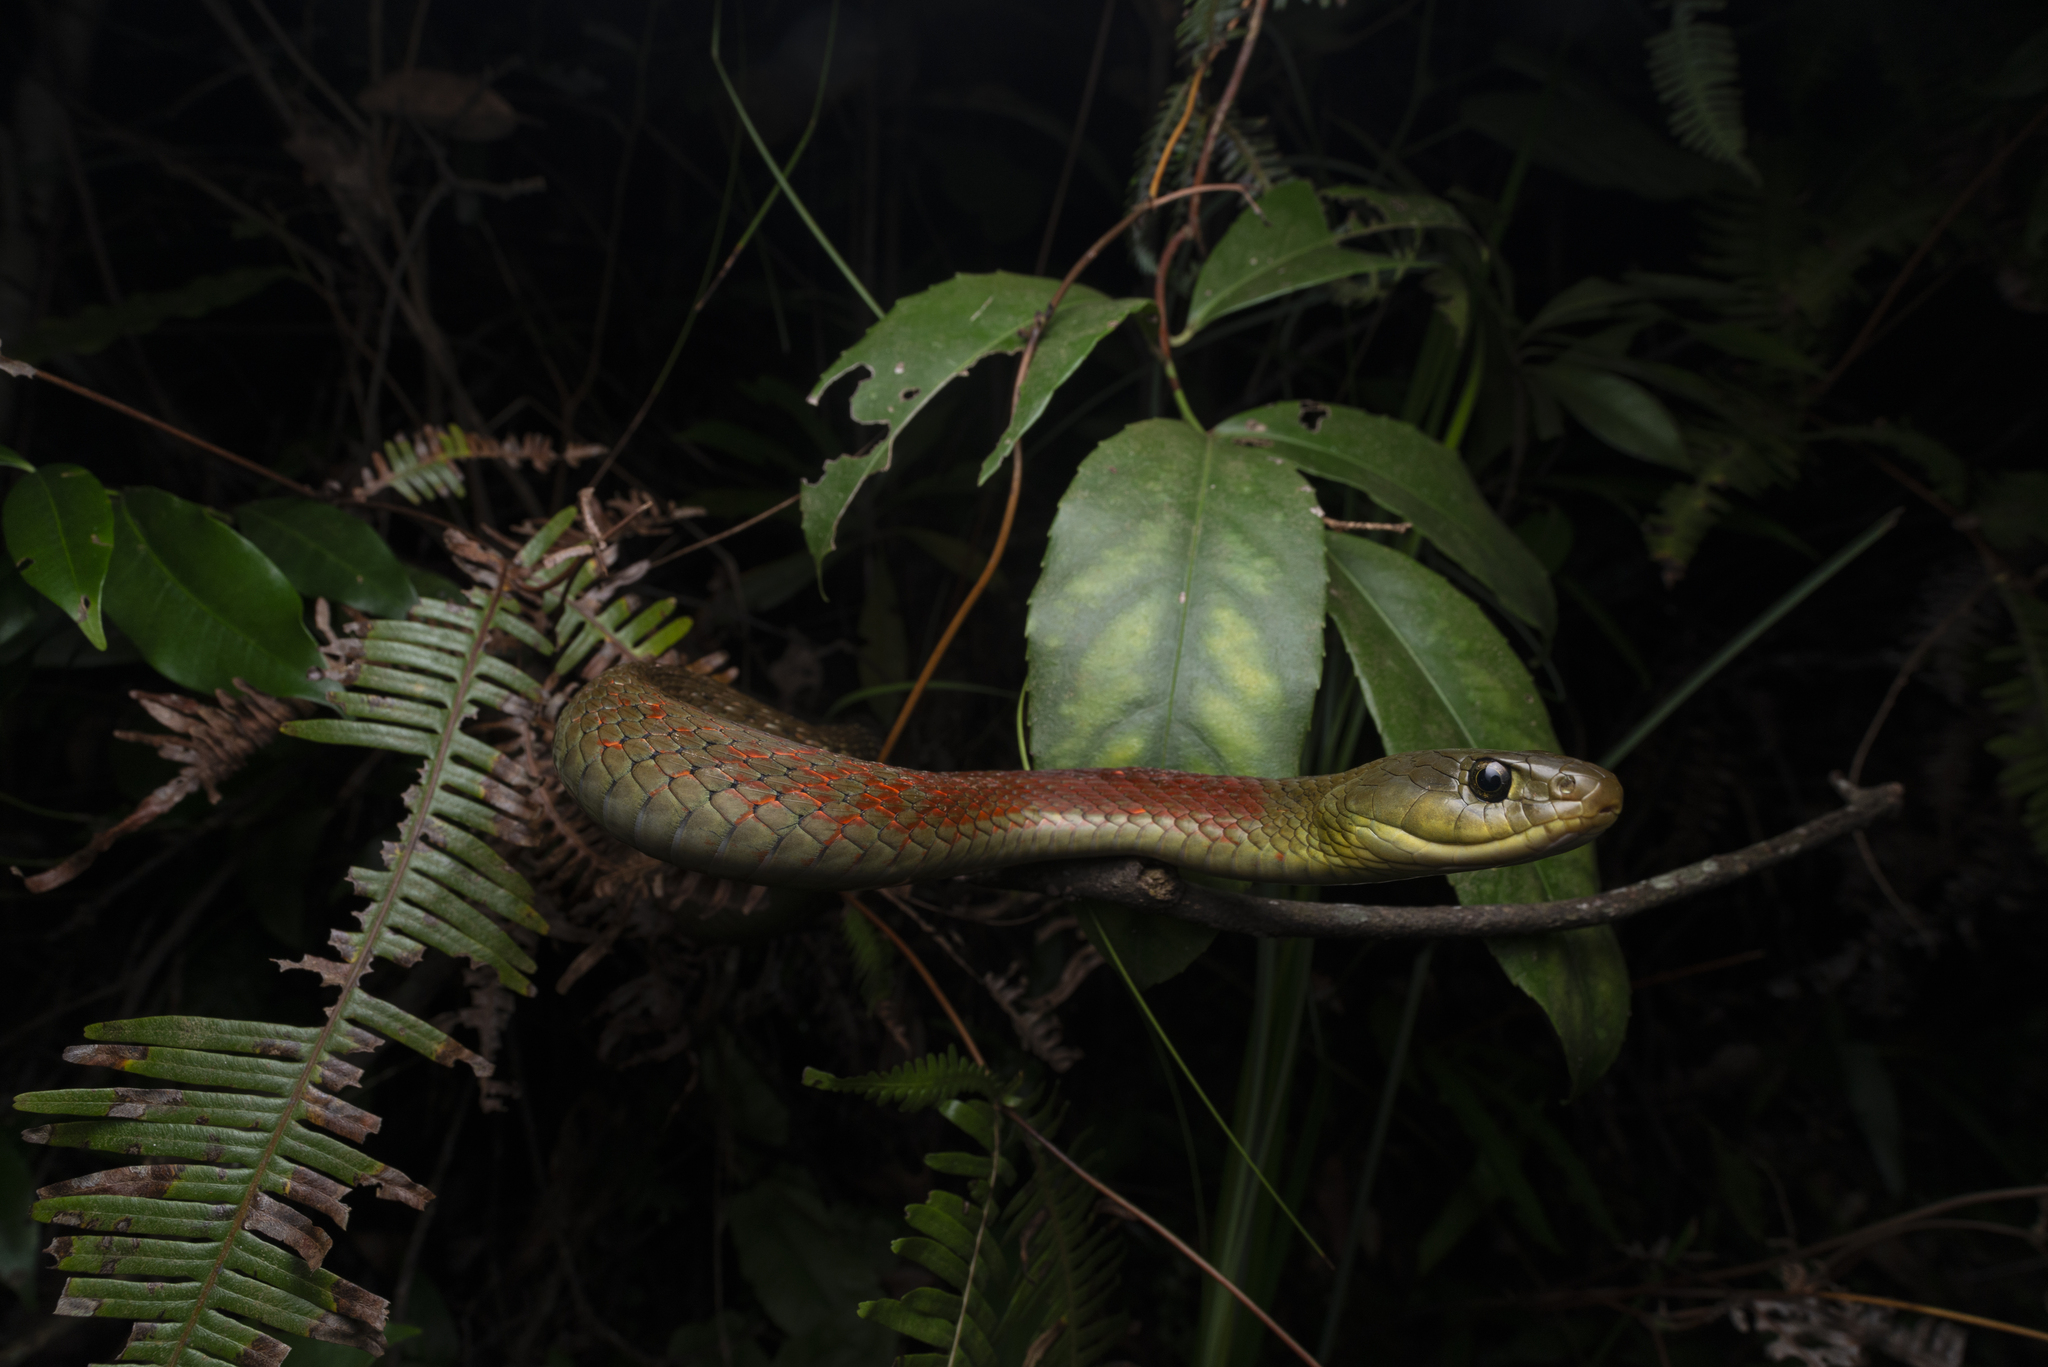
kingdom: Animalia
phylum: Chordata
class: Squamata
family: Colubridae
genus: Rhabdophis
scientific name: Rhabdophis helleri
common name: Heller’s red-necked keelback
